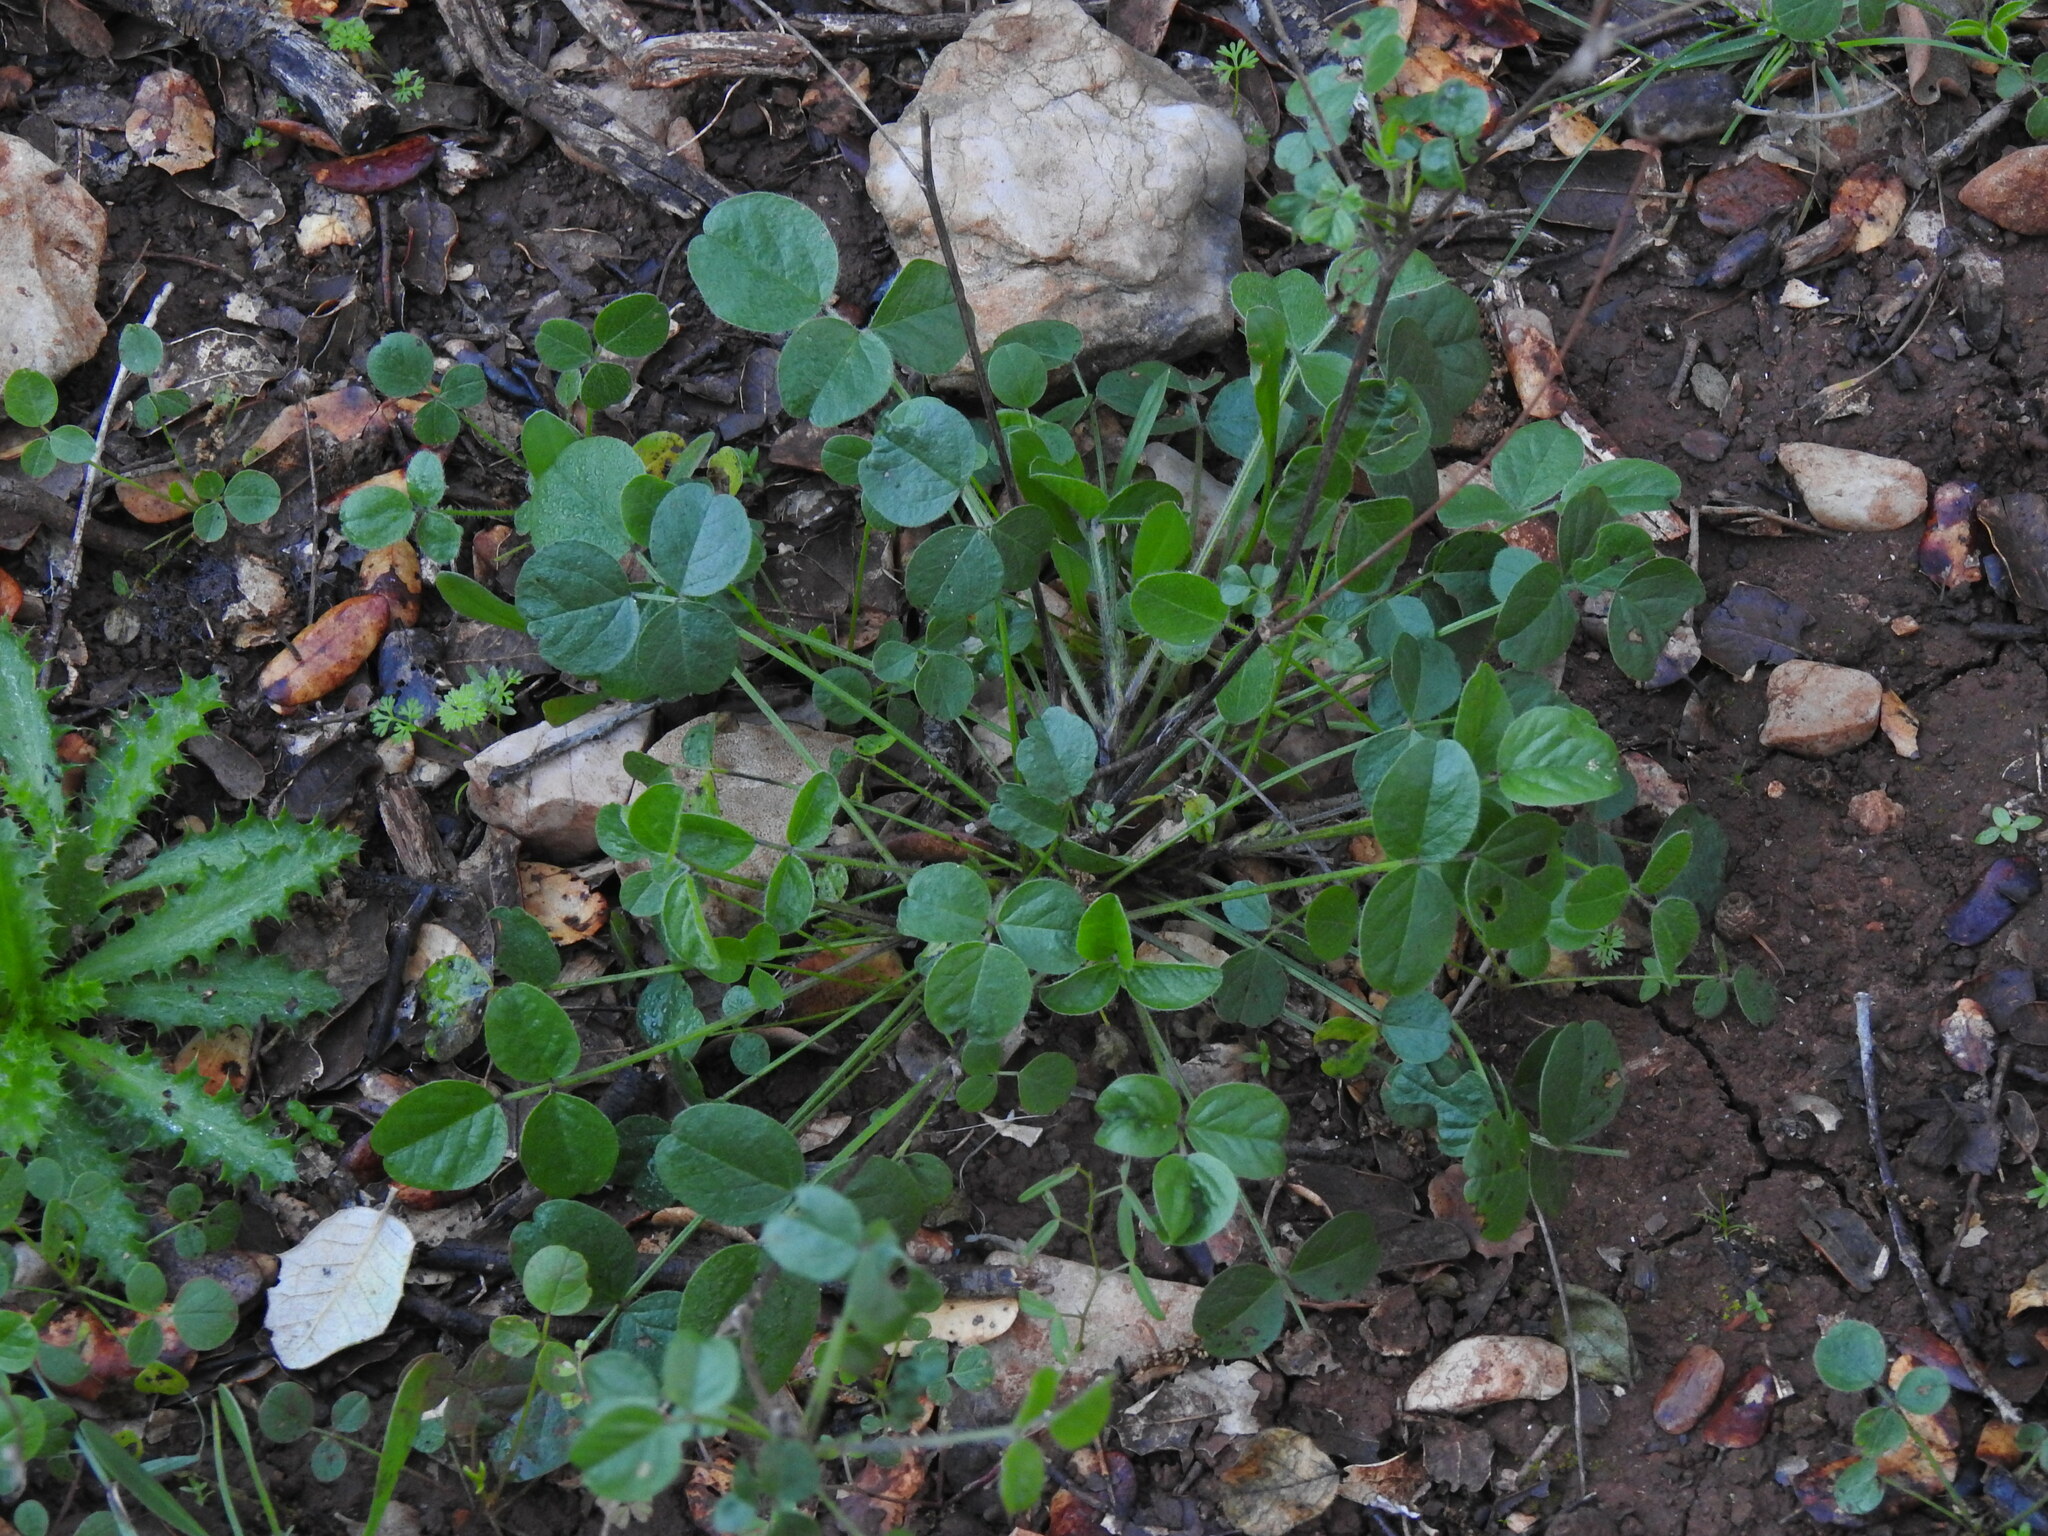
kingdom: Plantae
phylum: Tracheophyta
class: Magnoliopsida
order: Fabales
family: Fabaceae
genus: Bituminaria
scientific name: Bituminaria bituminosa
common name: Arabian pea
